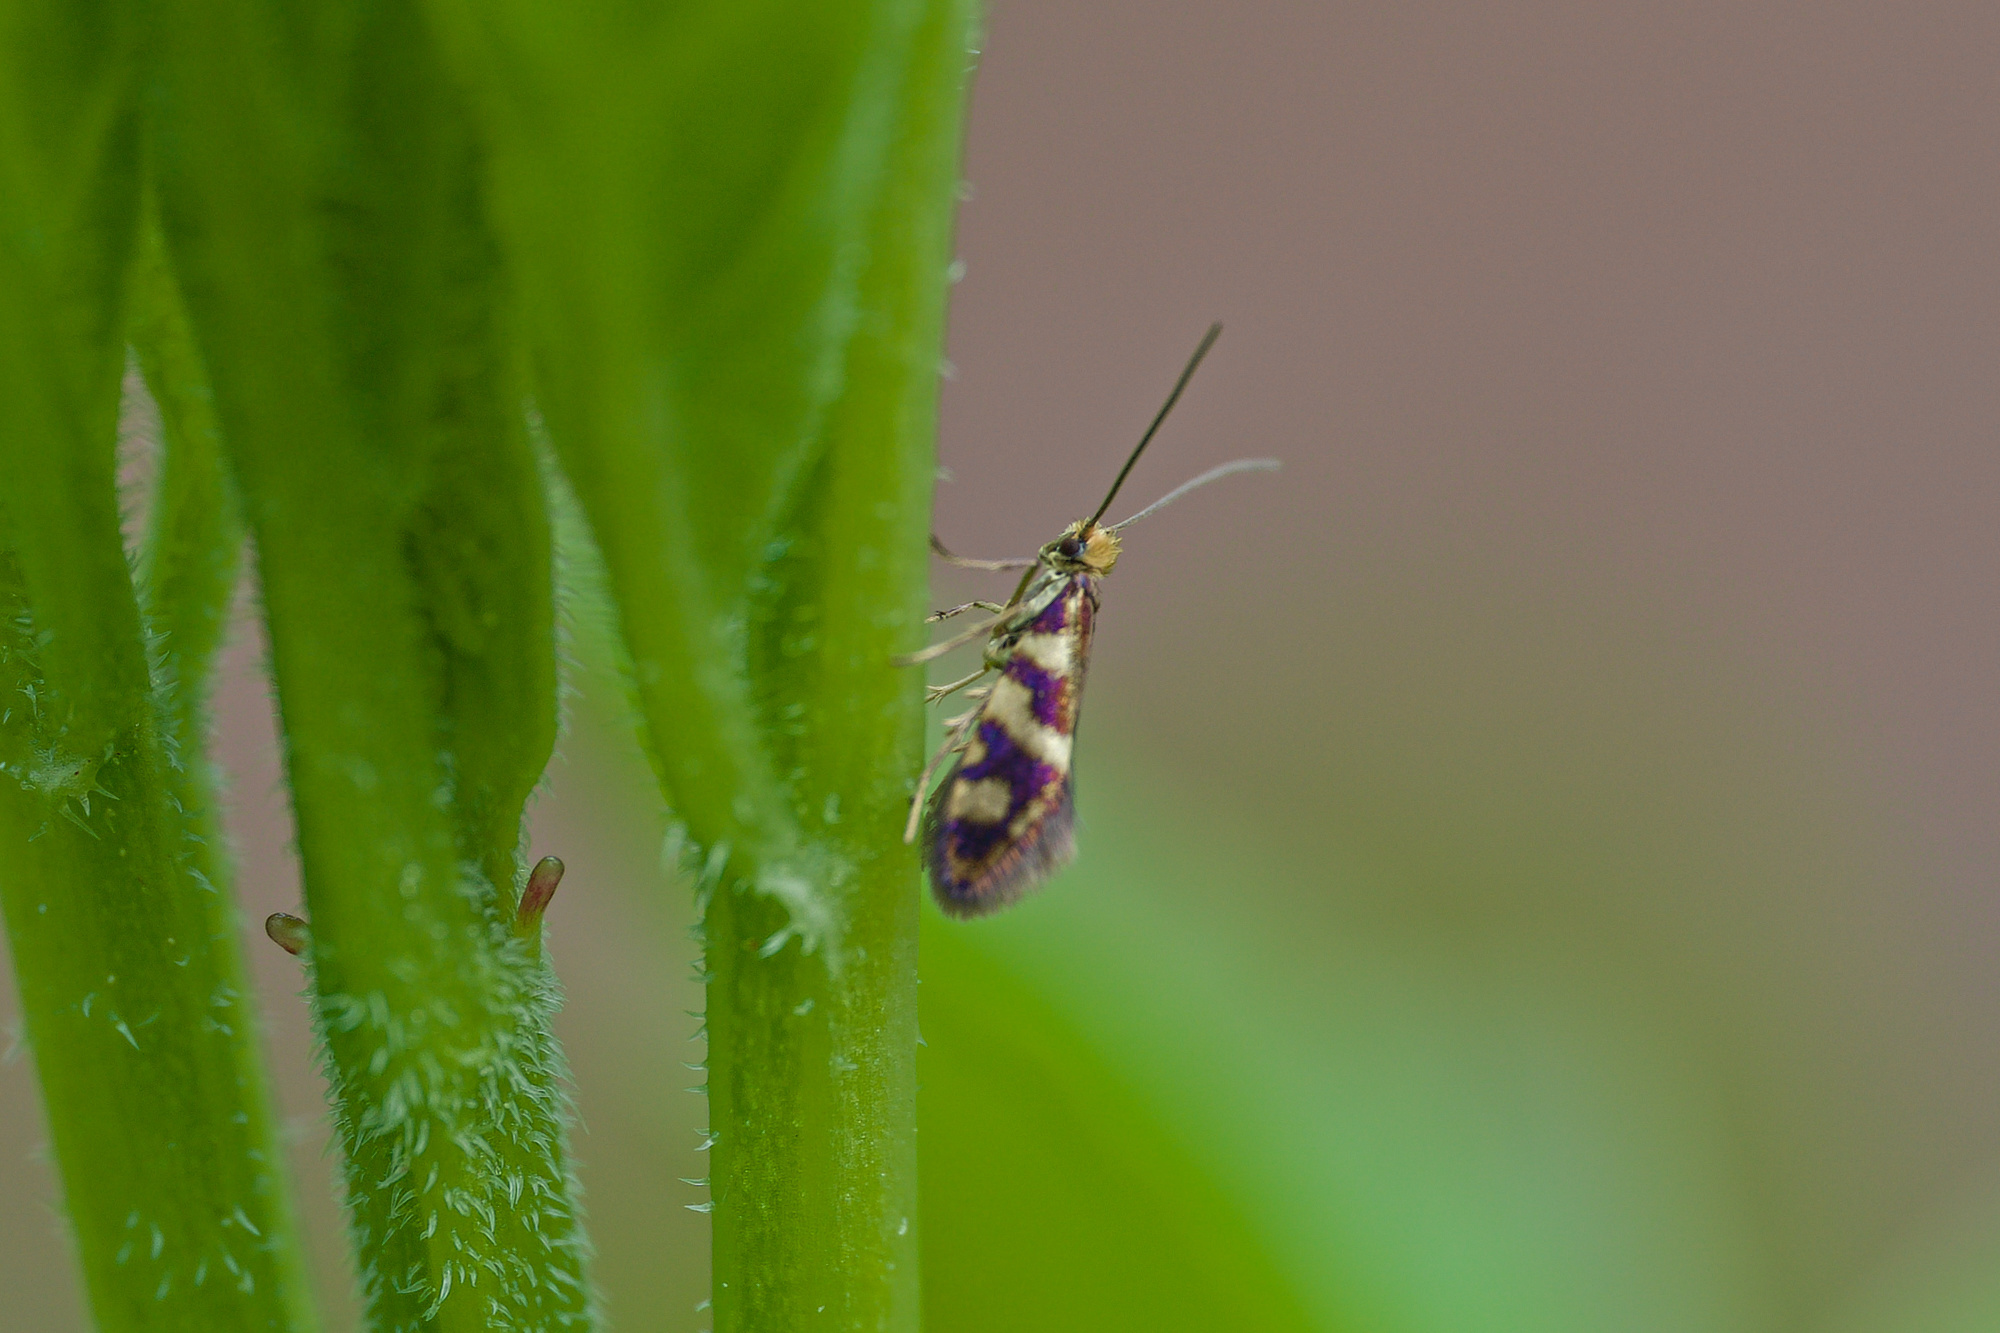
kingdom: Animalia
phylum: Arthropoda
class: Insecta
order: Lepidoptera
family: Micropterigidae
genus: Micropterix
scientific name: Micropterix schaefferi
